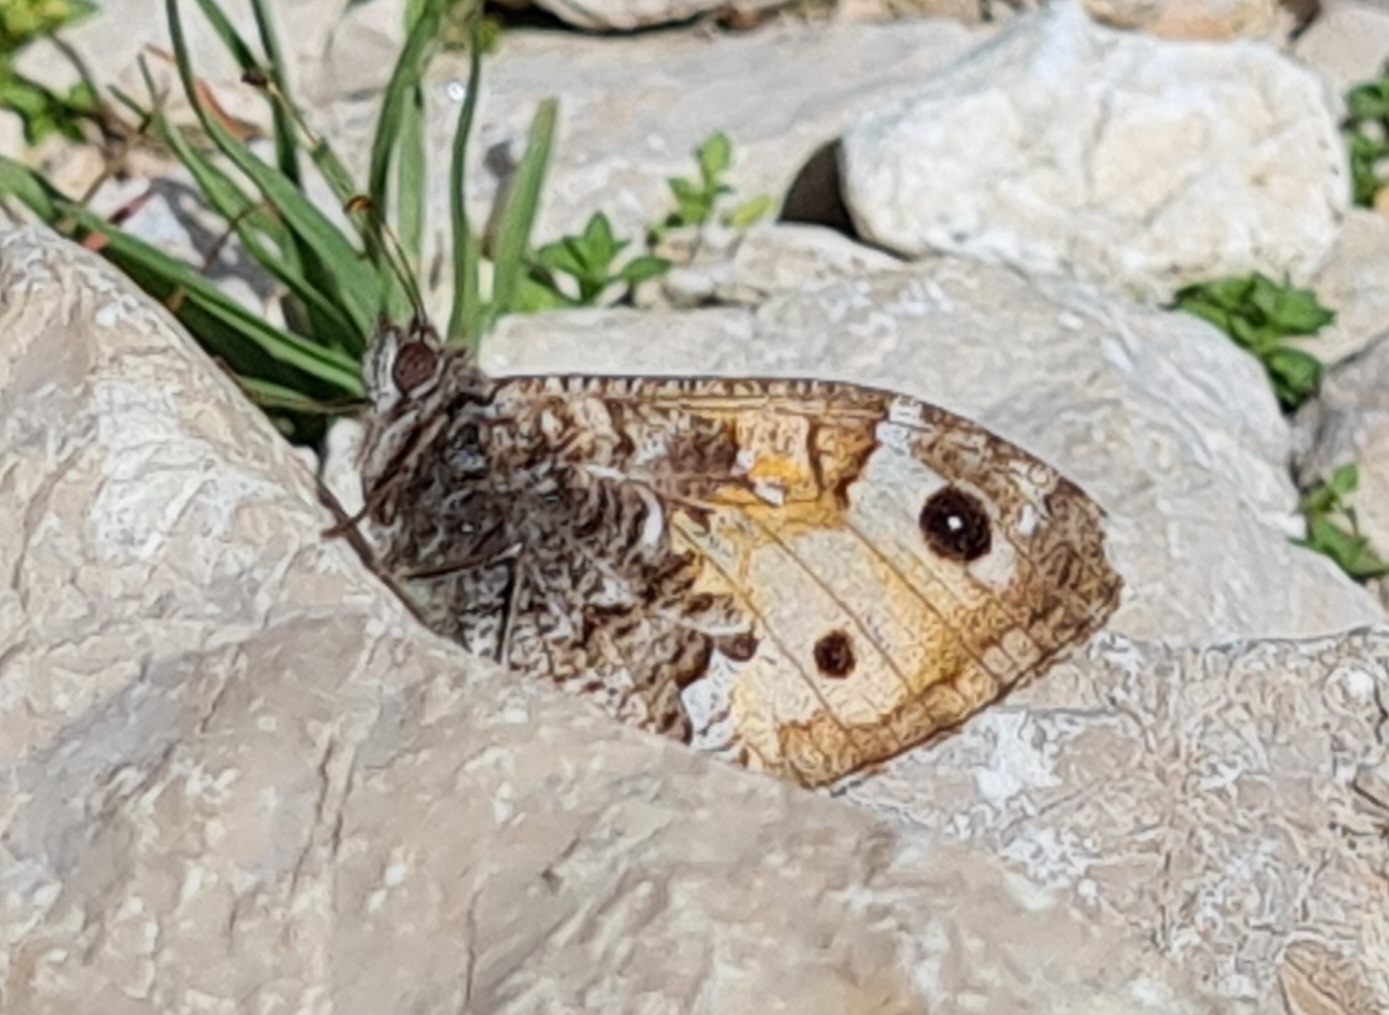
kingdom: Animalia
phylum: Arthropoda
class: Insecta
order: Lepidoptera
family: Nymphalidae
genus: Hipparchia
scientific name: Hipparchia semele
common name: Grayling
